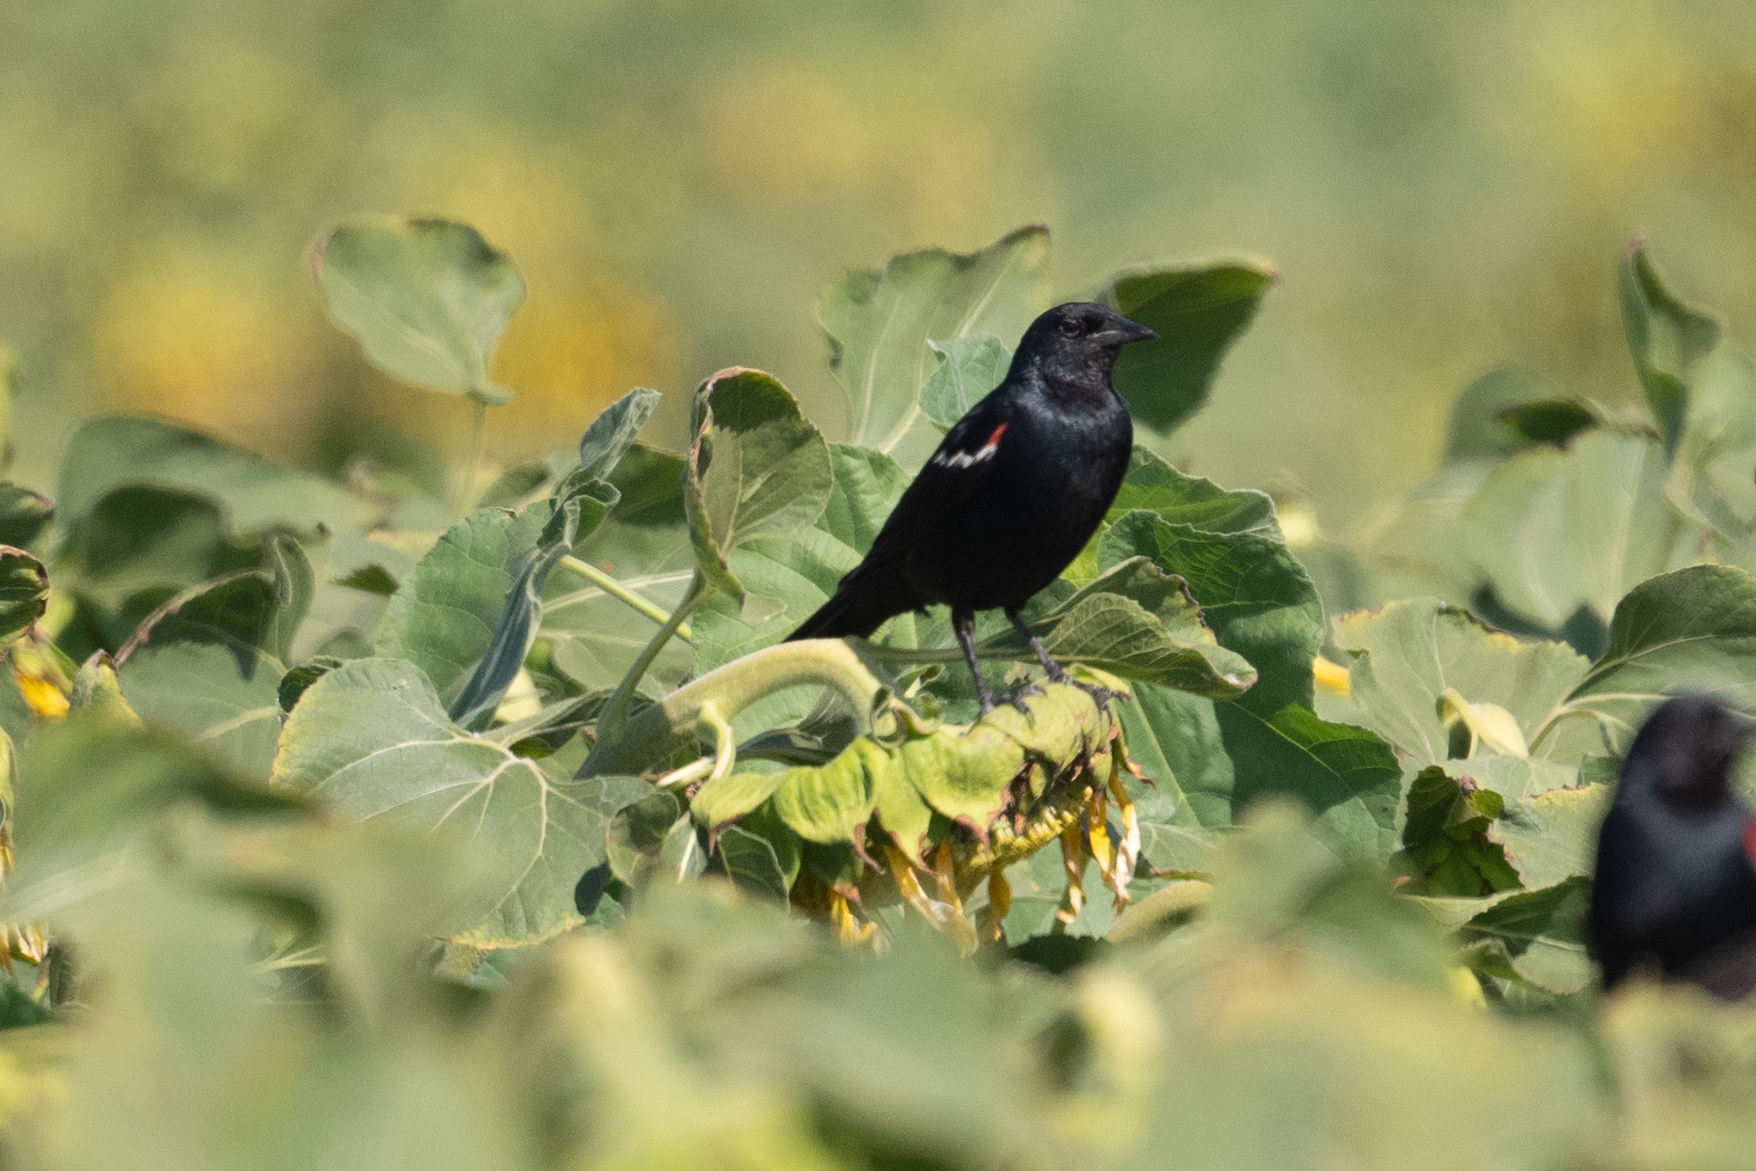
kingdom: Animalia
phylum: Chordata
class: Aves
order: Passeriformes
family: Icteridae
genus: Agelaius
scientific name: Agelaius tricolor
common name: Tricolored blackbird
